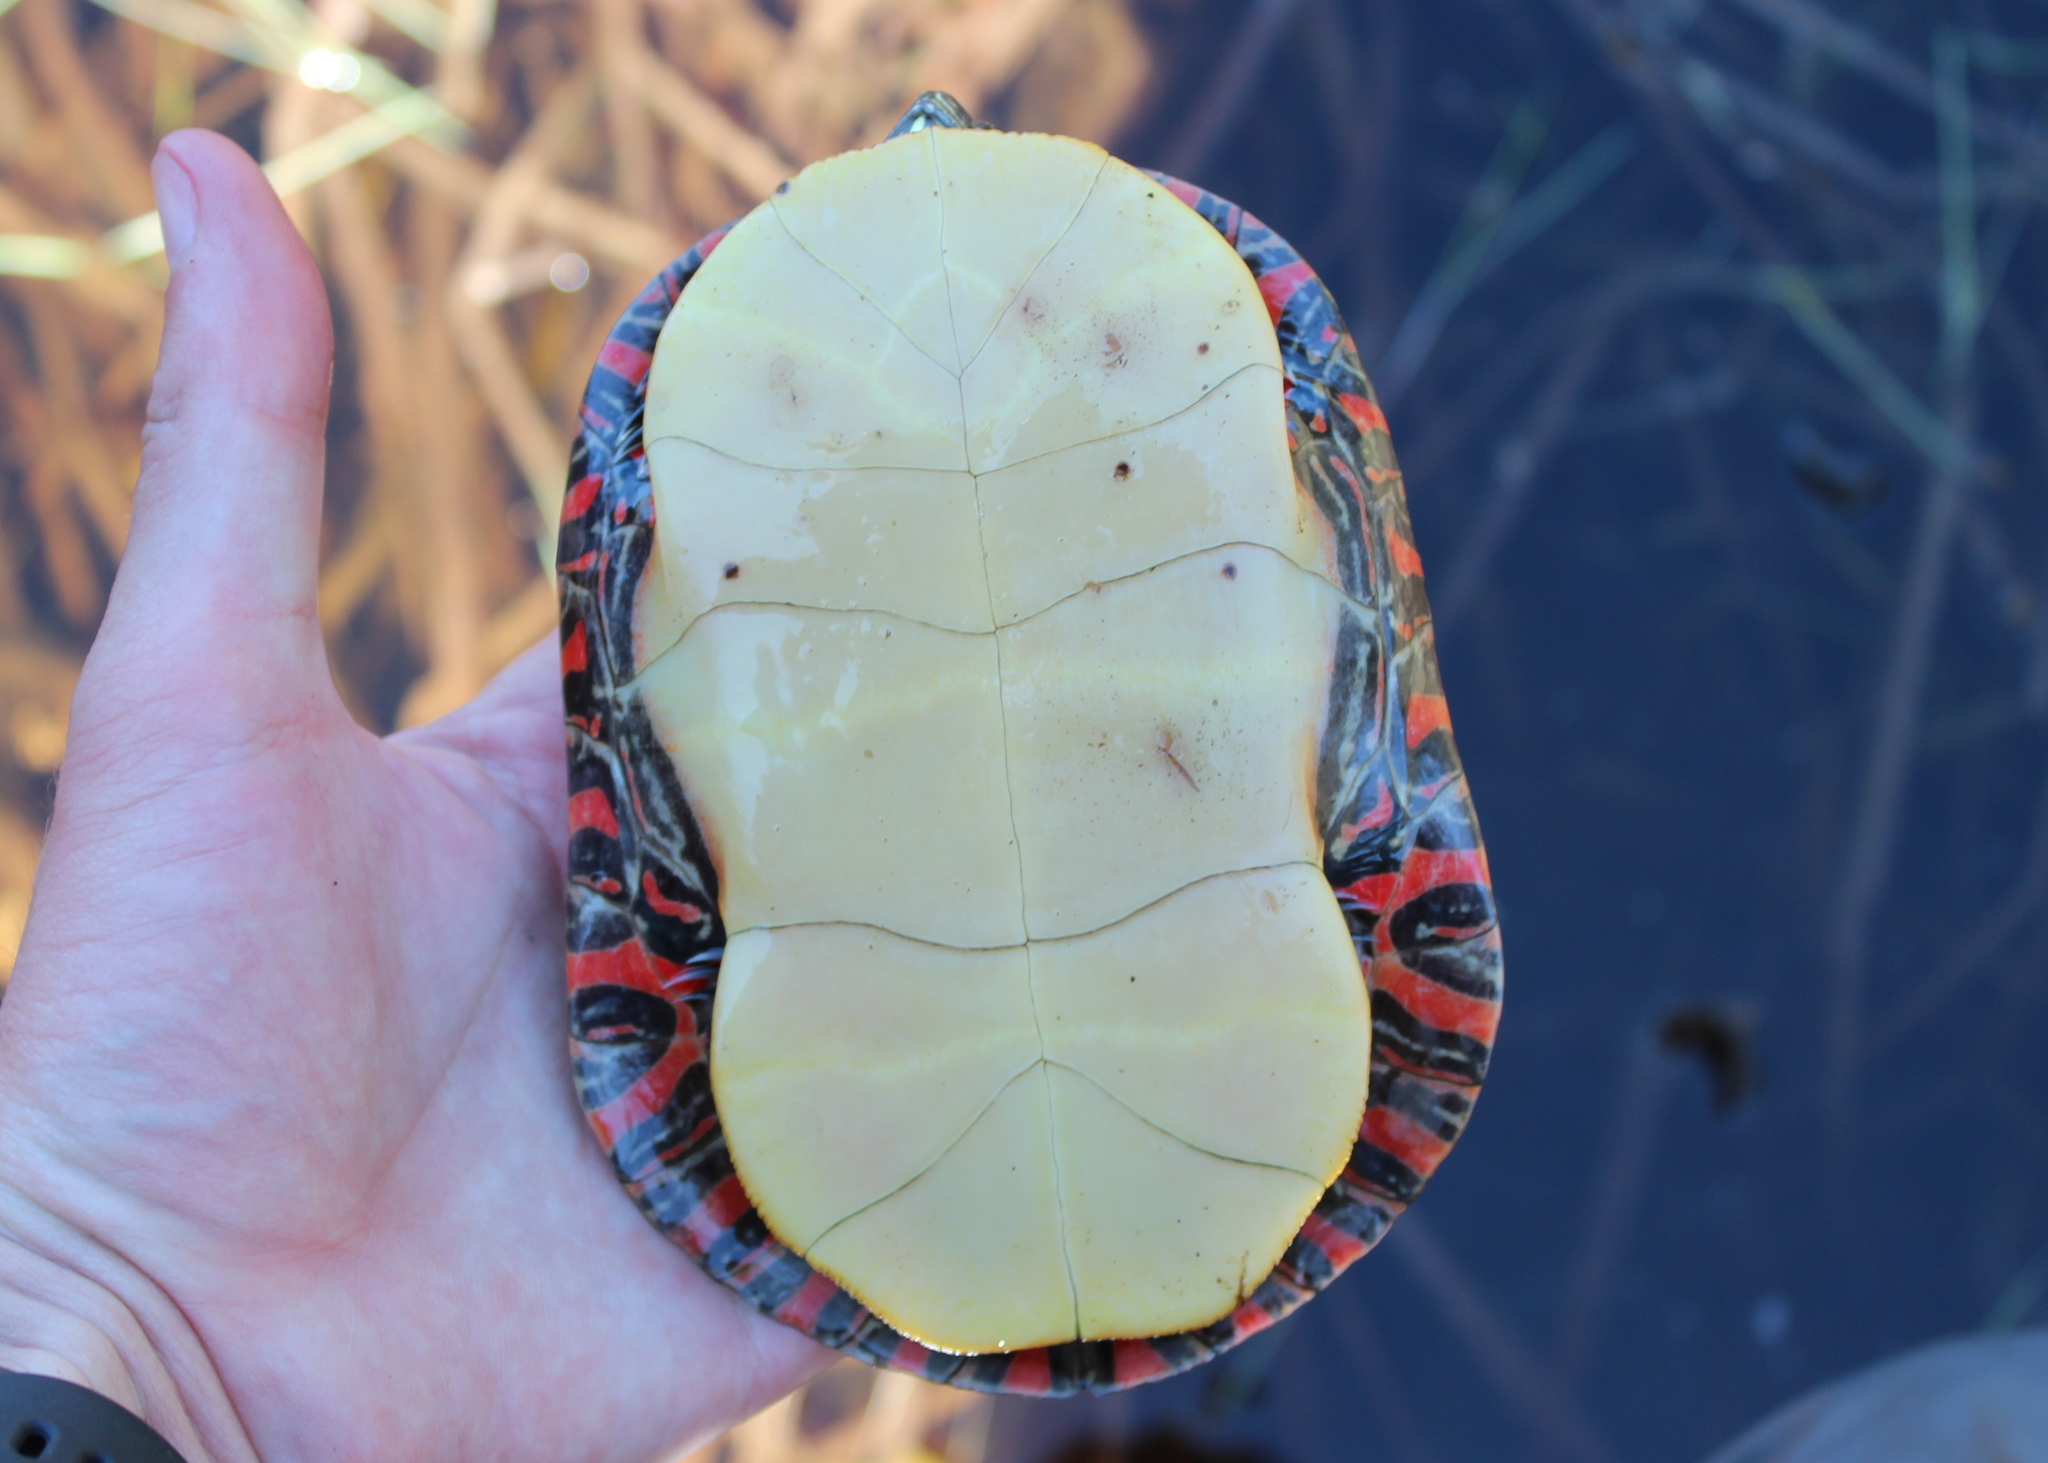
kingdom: Animalia
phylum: Chordata
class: Testudines
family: Emydidae
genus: Chrysemys
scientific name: Chrysemys picta
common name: Painted turtle
